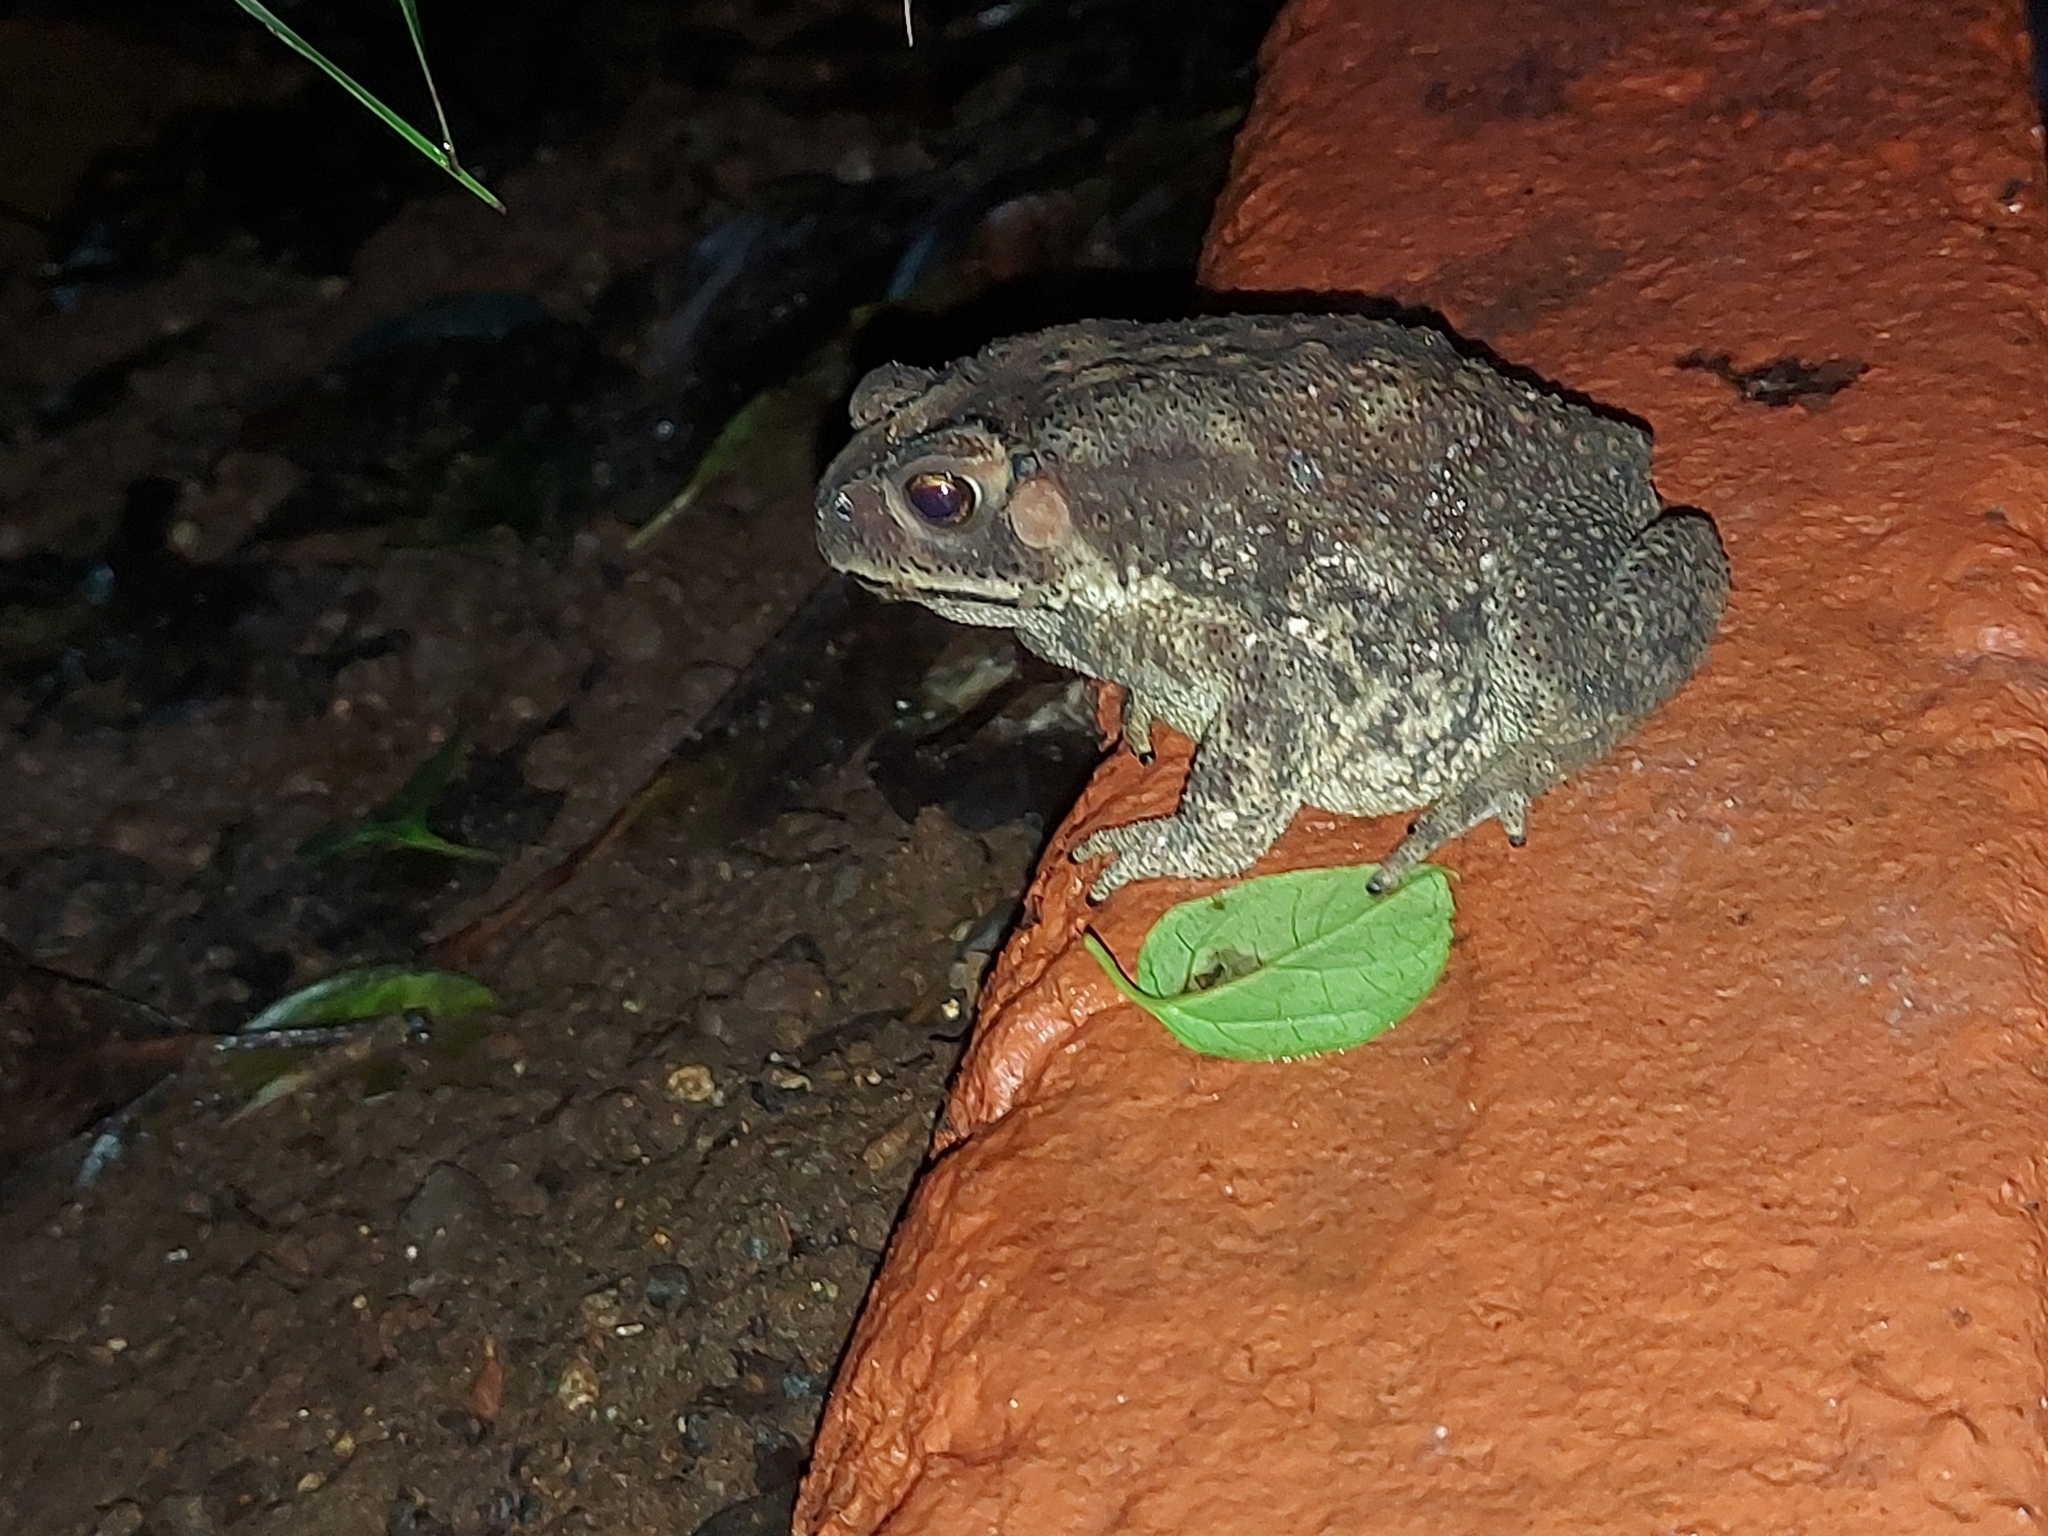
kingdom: Animalia
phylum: Chordata
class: Amphibia
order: Anura
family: Bufonidae
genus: Duttaphrynus
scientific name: Duttaphrynus melanostictus
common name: Common sunda toad
